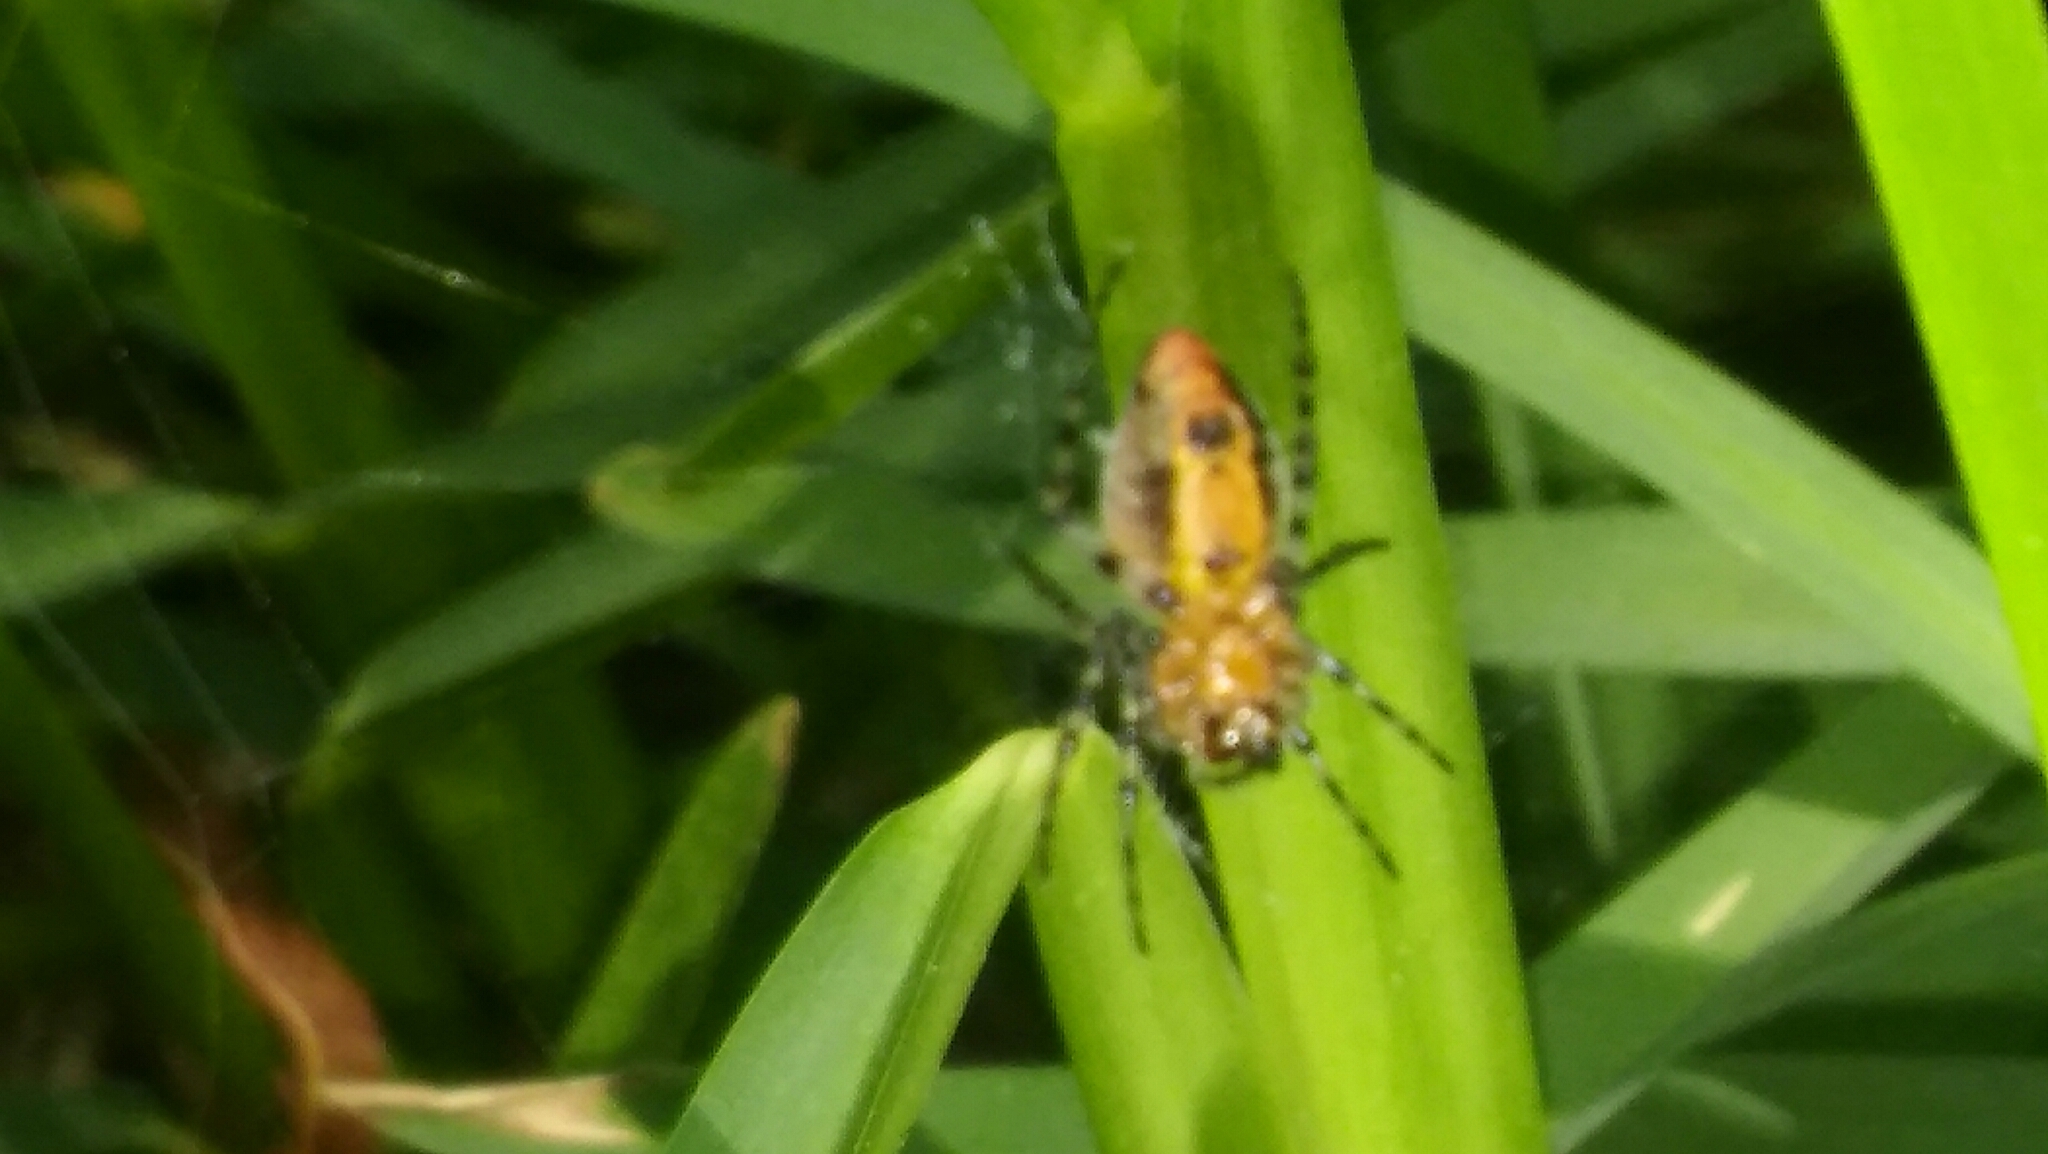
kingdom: Animalia
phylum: Arthropoda
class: Arachnida
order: Araneae
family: Araneidae
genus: Alpaida
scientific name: Alpaida gallardoi
